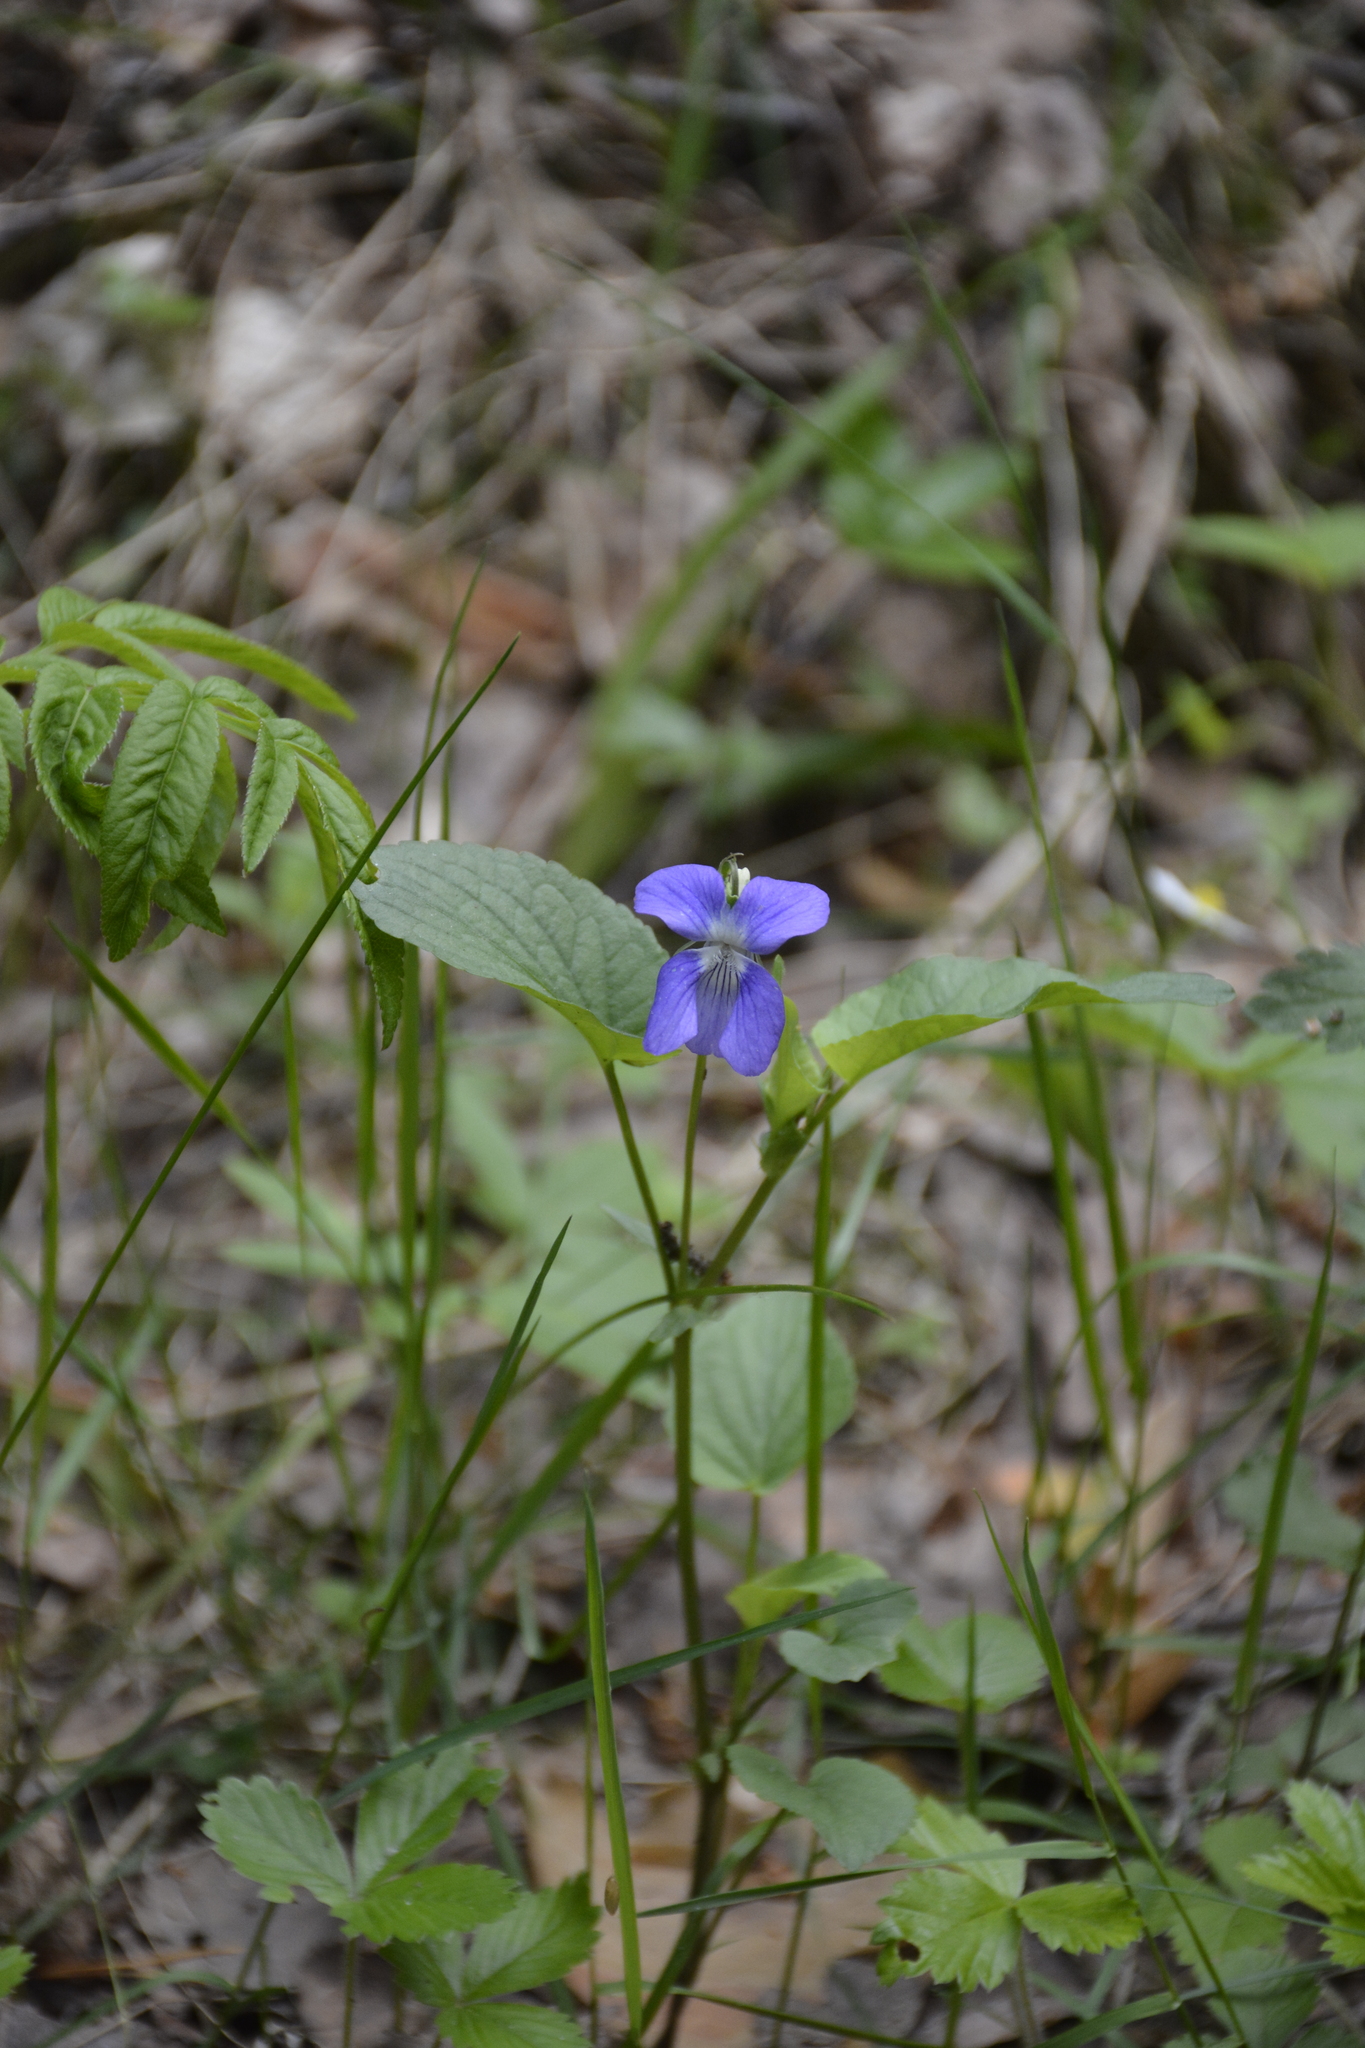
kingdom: Plantae
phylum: Tracheophyta
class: Magnoliopsida
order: Malpighiales
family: Violaceae
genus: Viola
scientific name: Viola canina
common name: Heath dog-violet
